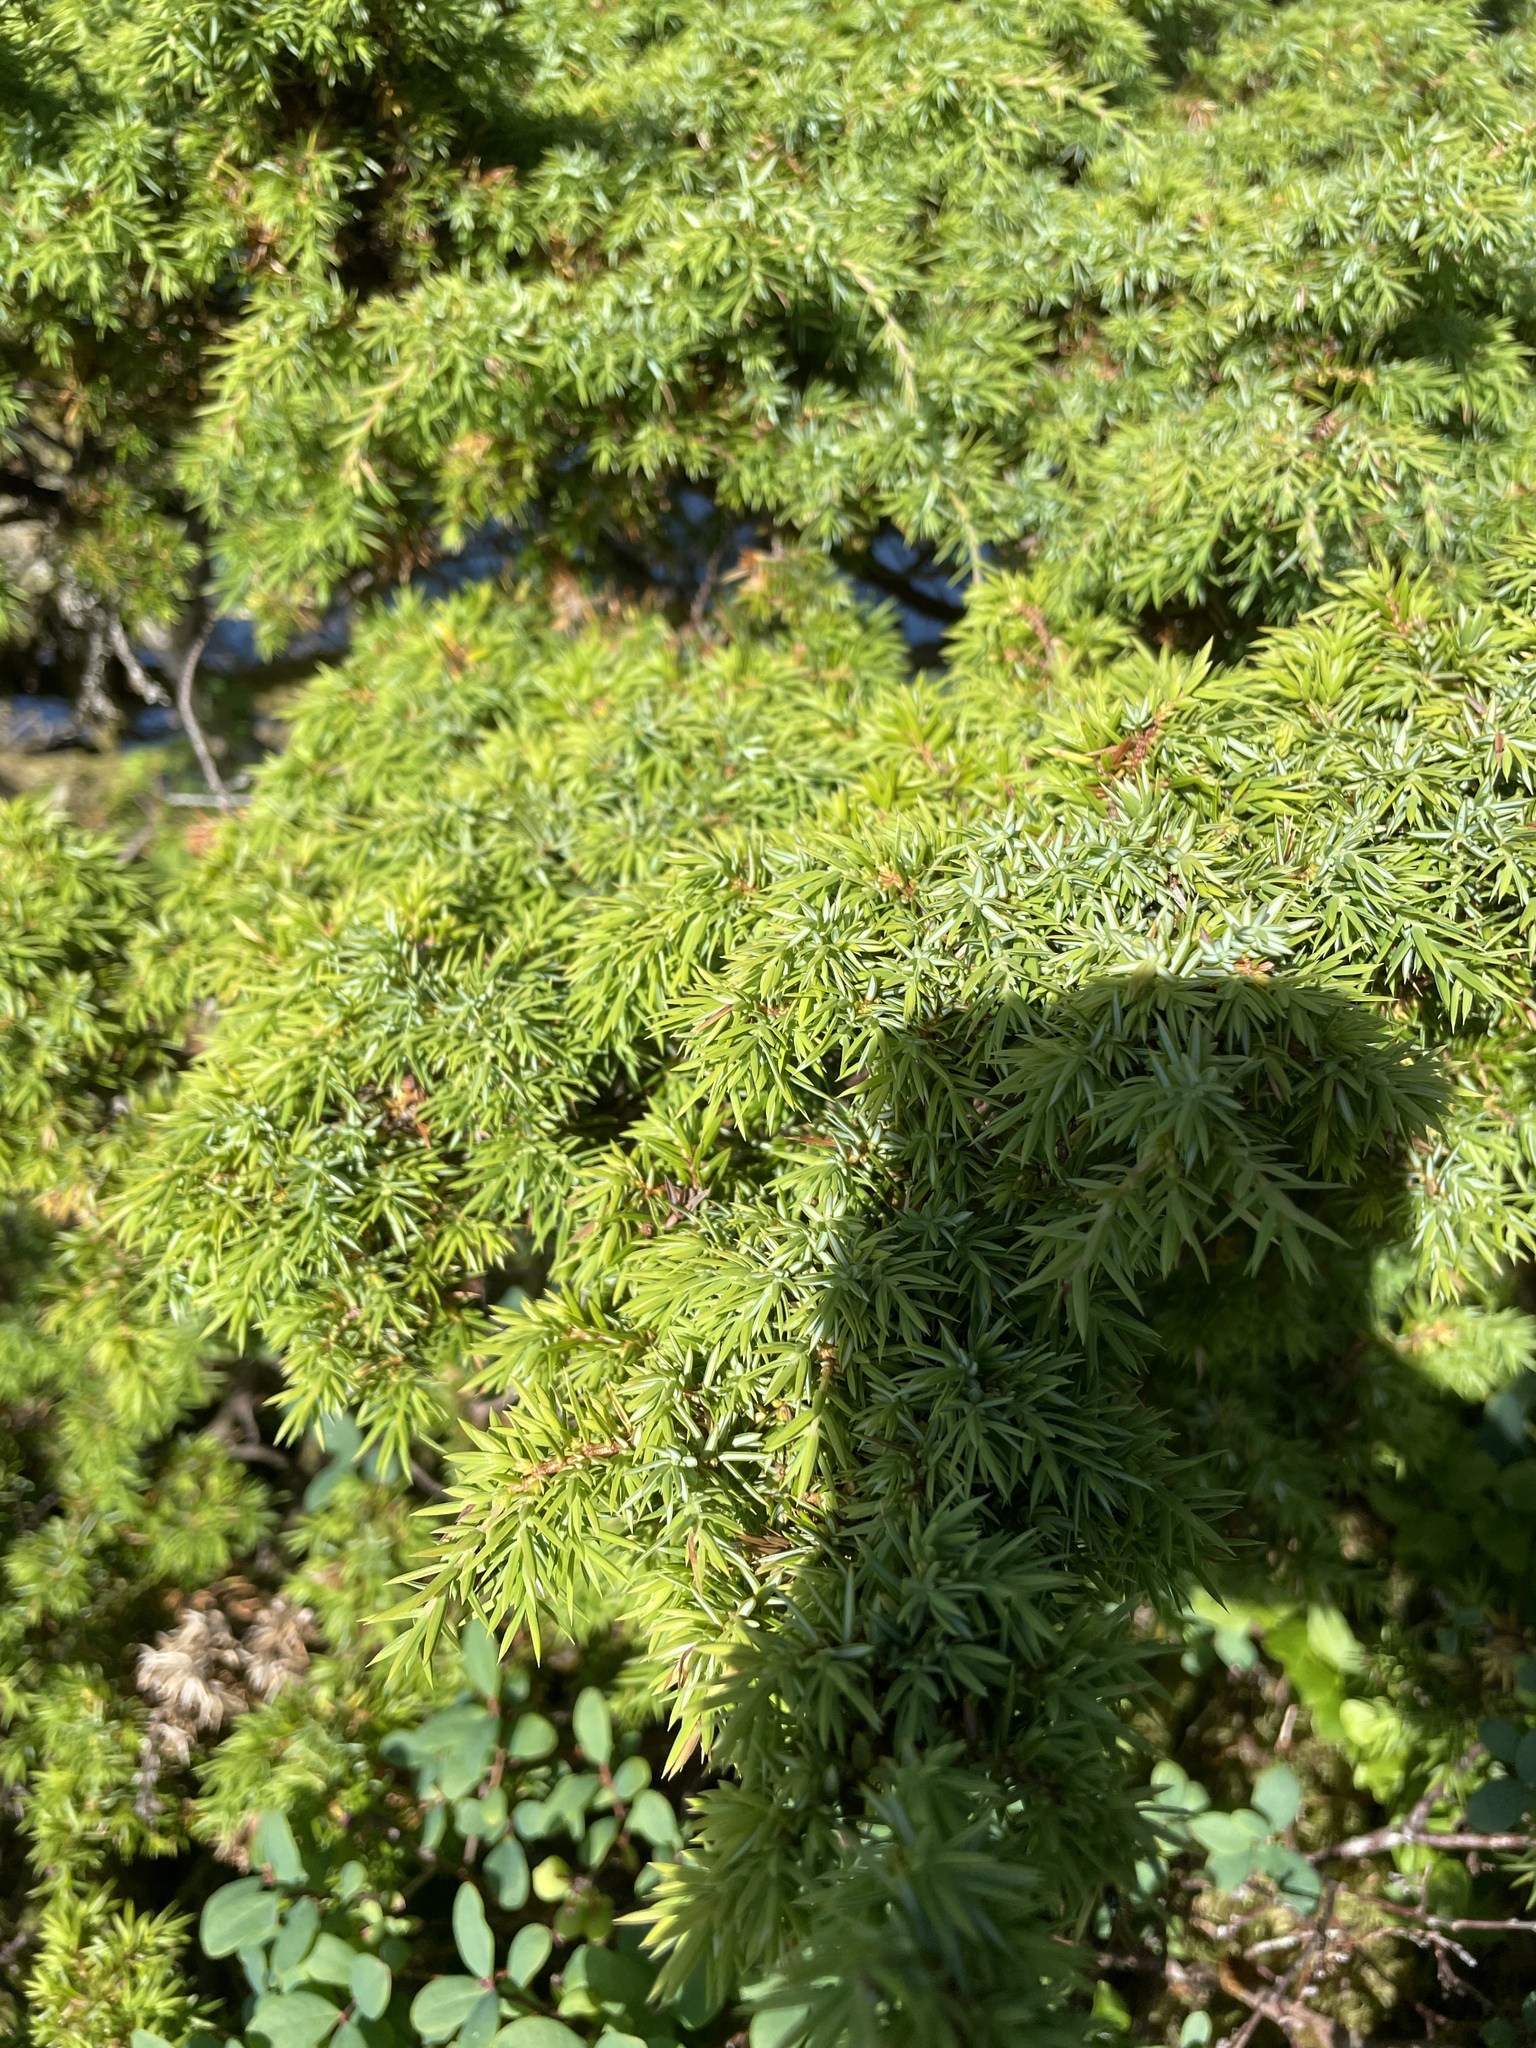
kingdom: Plantae
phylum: Tracheophyta
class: Pinopsida
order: Pinales
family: Cupressaceae
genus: Juniperus
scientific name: Juniperus communis
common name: Common juniper
